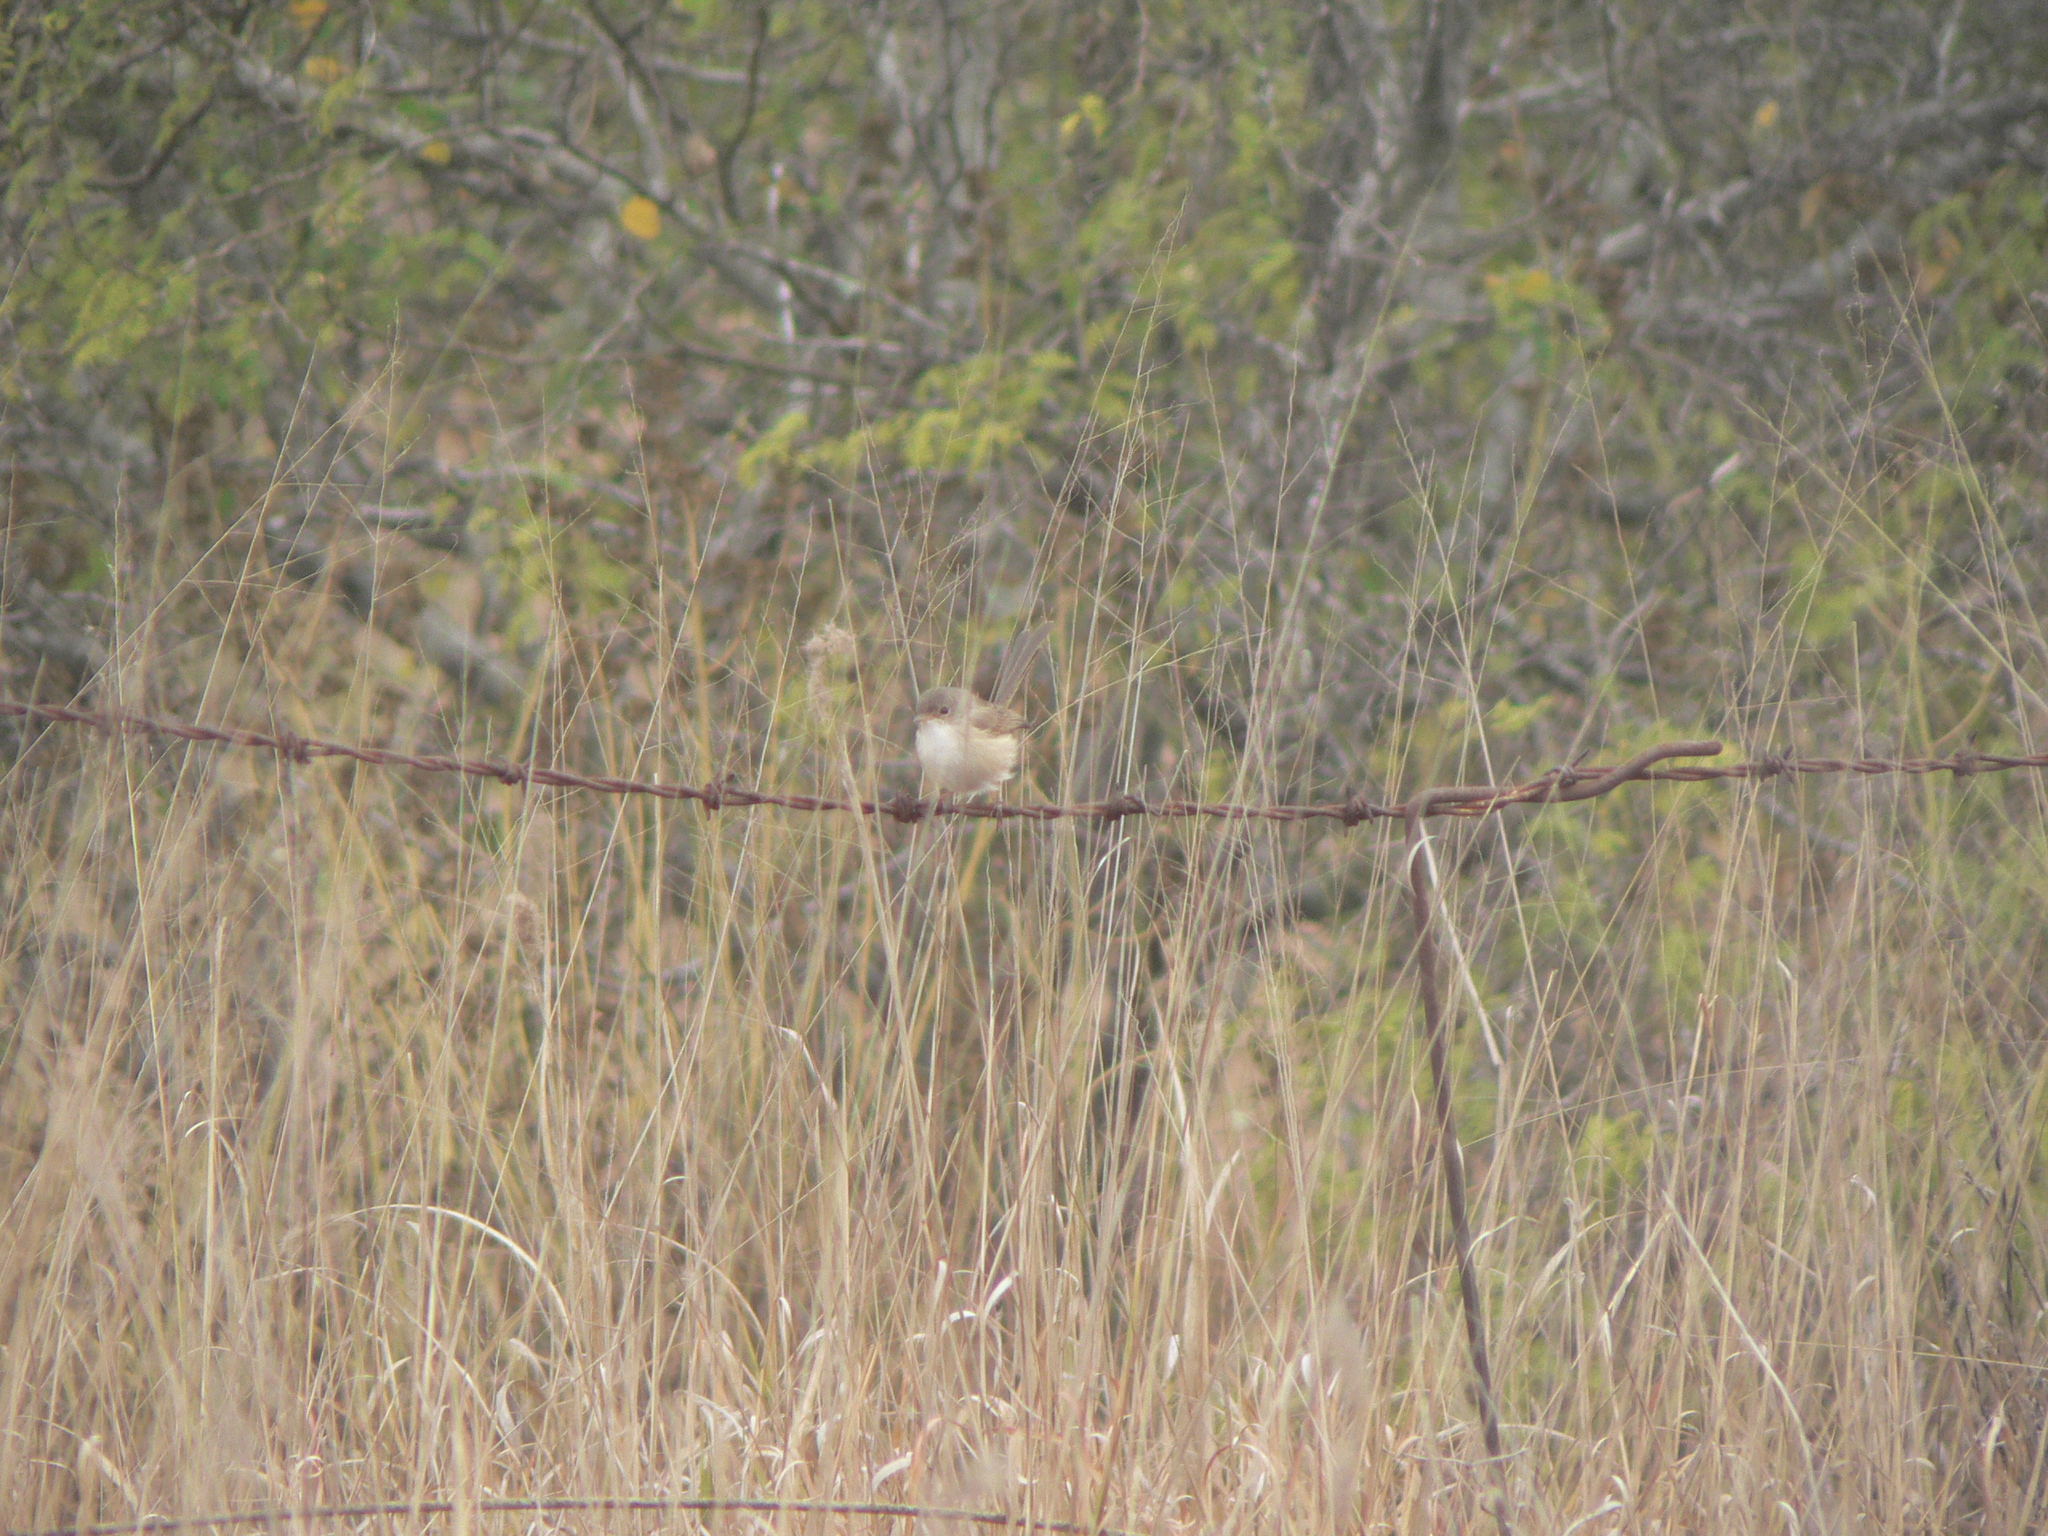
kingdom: Animalia
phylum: Chordata
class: Aves
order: Passeriformes
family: Maluridae
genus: Malurus
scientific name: Malurus melanocephalus
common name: Red-backed fairywren
